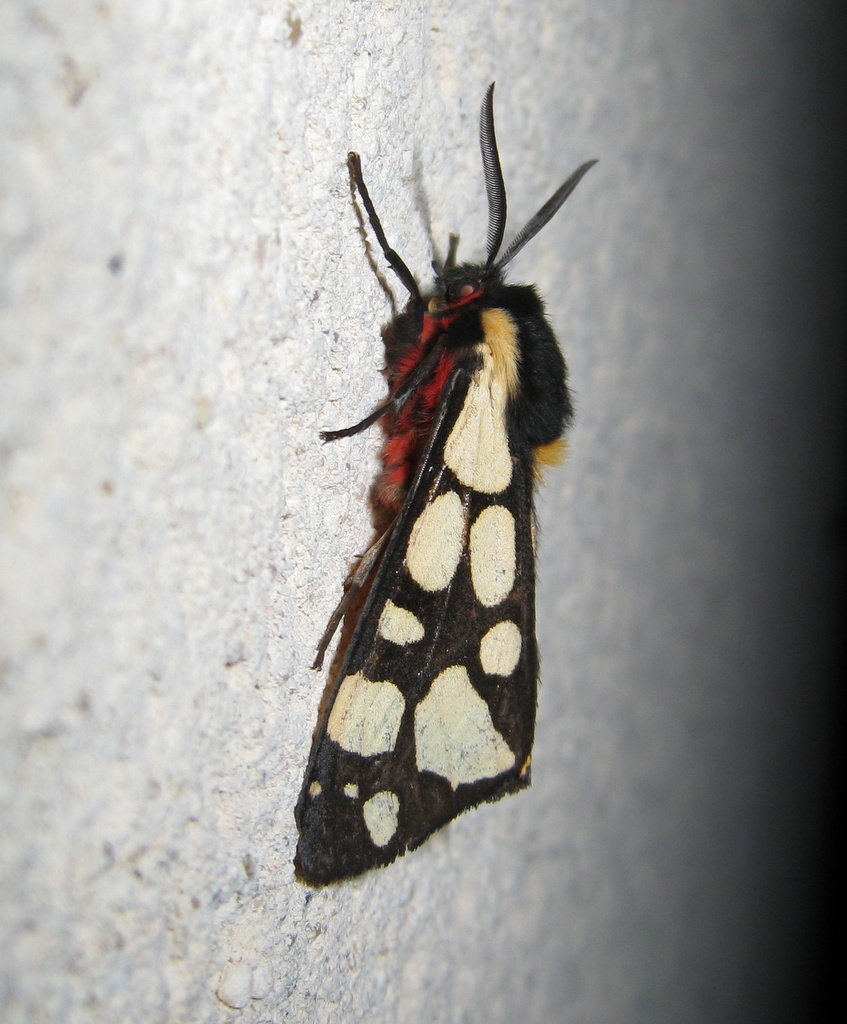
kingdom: Animalia
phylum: Arthropoda
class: Insecta
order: Lepidoptera
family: Erebidae
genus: Epicallia
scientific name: Epicallia villica
